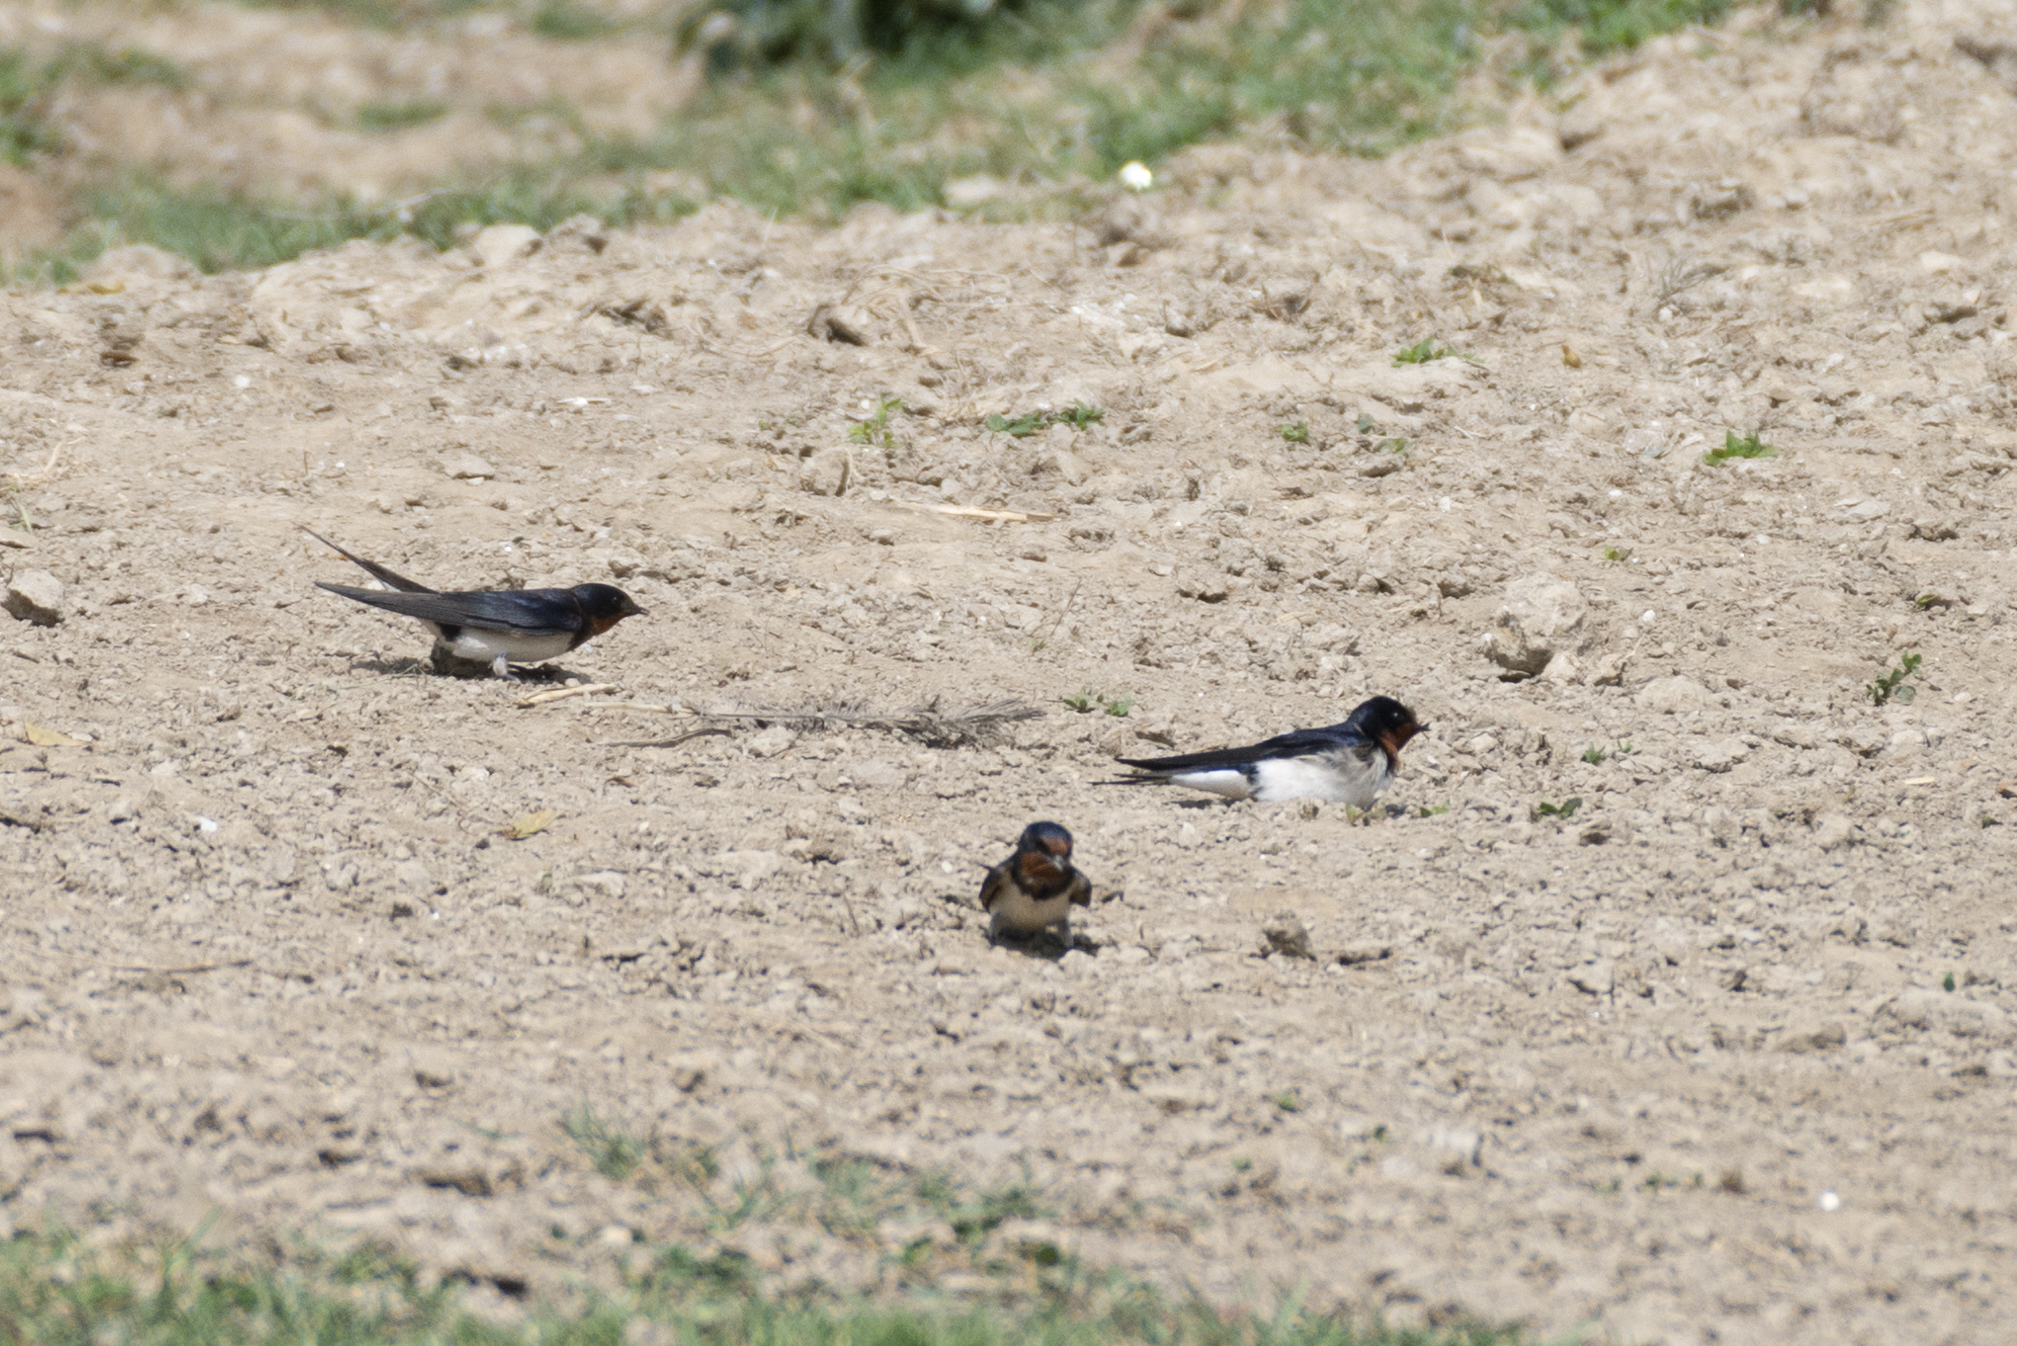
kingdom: Animalia
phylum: Chordata
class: Aves
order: Passeriformes
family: Hirundinidae
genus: Hirundo
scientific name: Hirundo rustica
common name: Barn swallow
